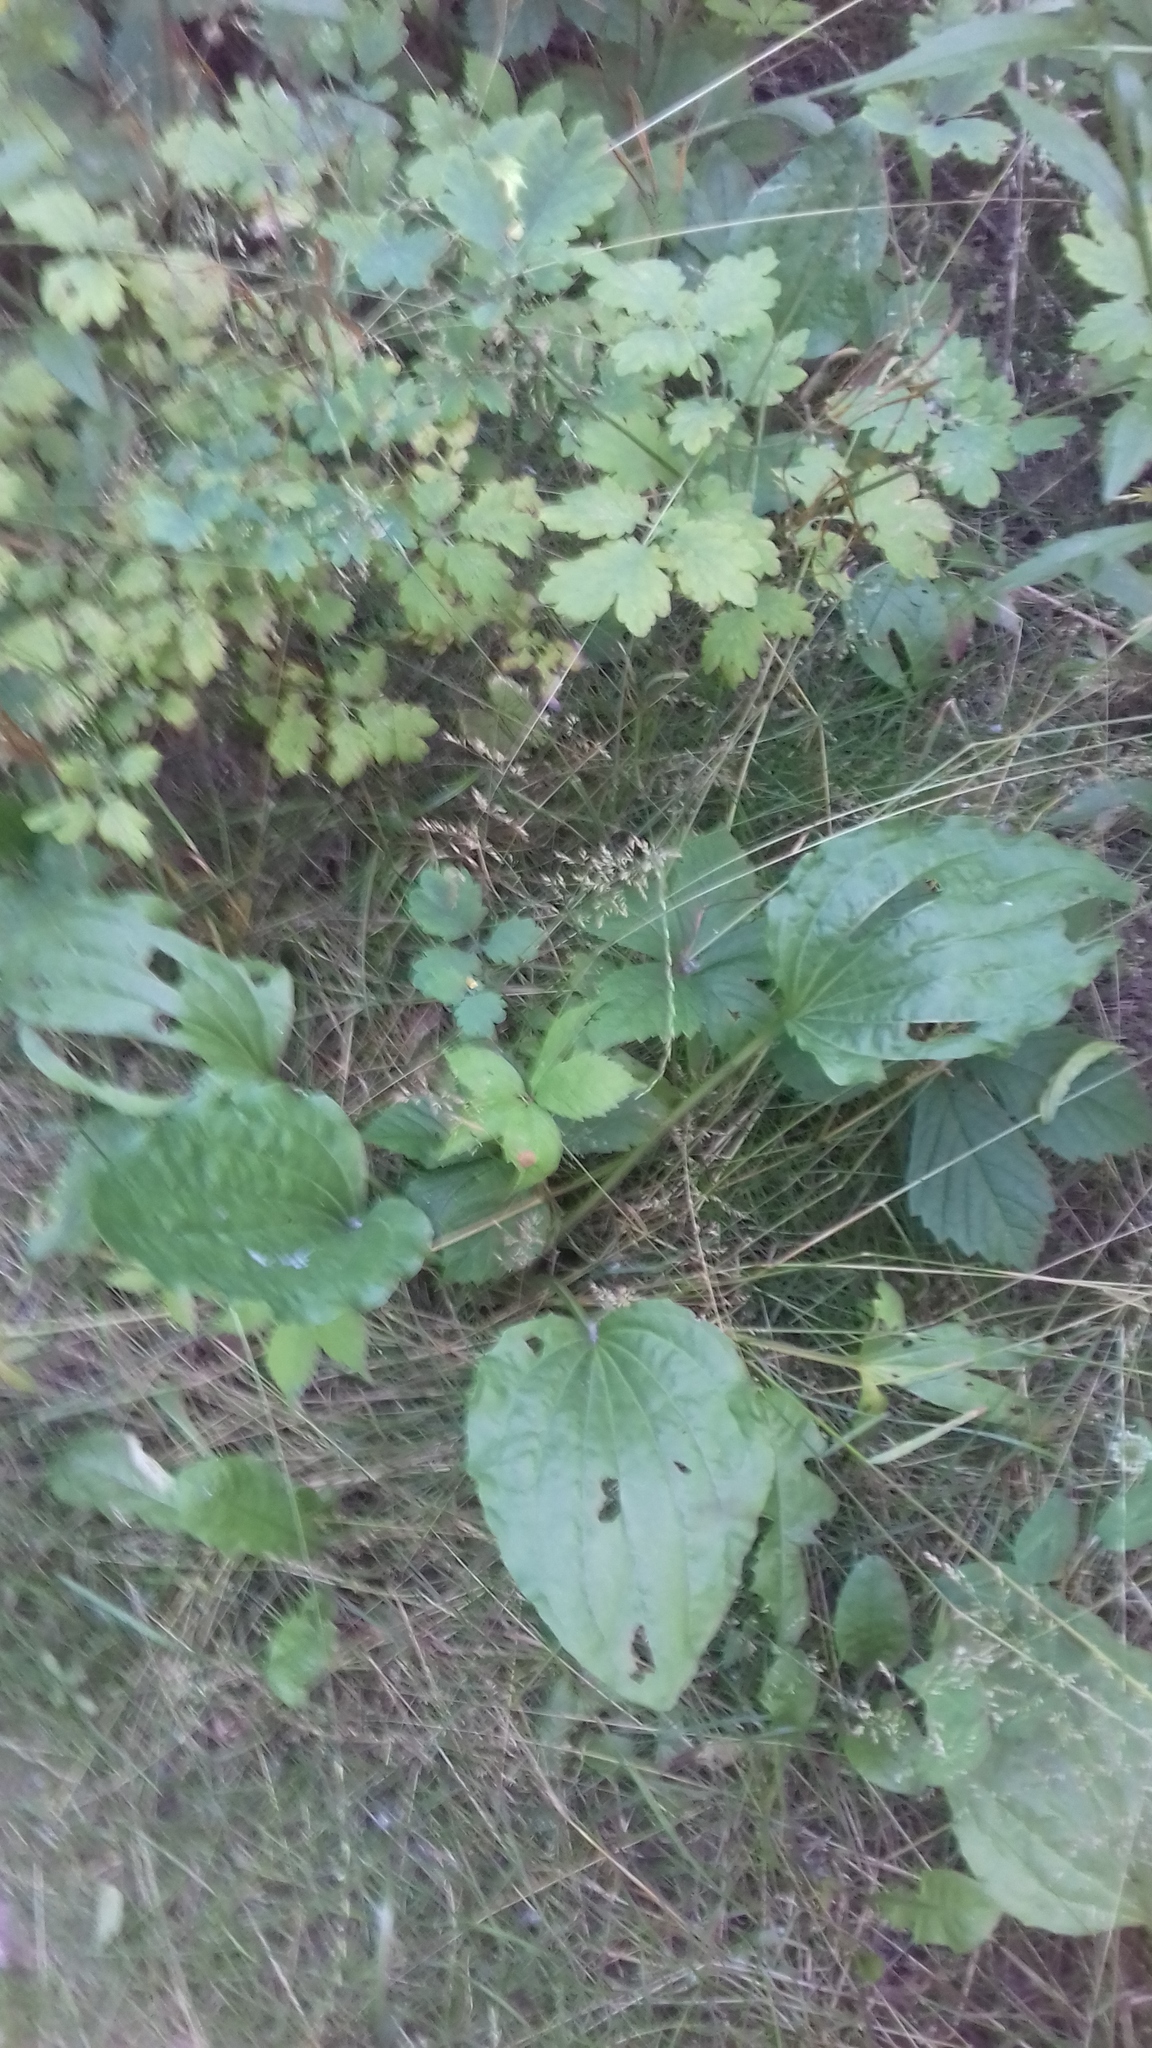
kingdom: Plantae
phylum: Tracheophyta
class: Magnoliopsida
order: Lamiales
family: Plantaginaceae
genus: Plantago
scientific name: Plantago major
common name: Common plantain
